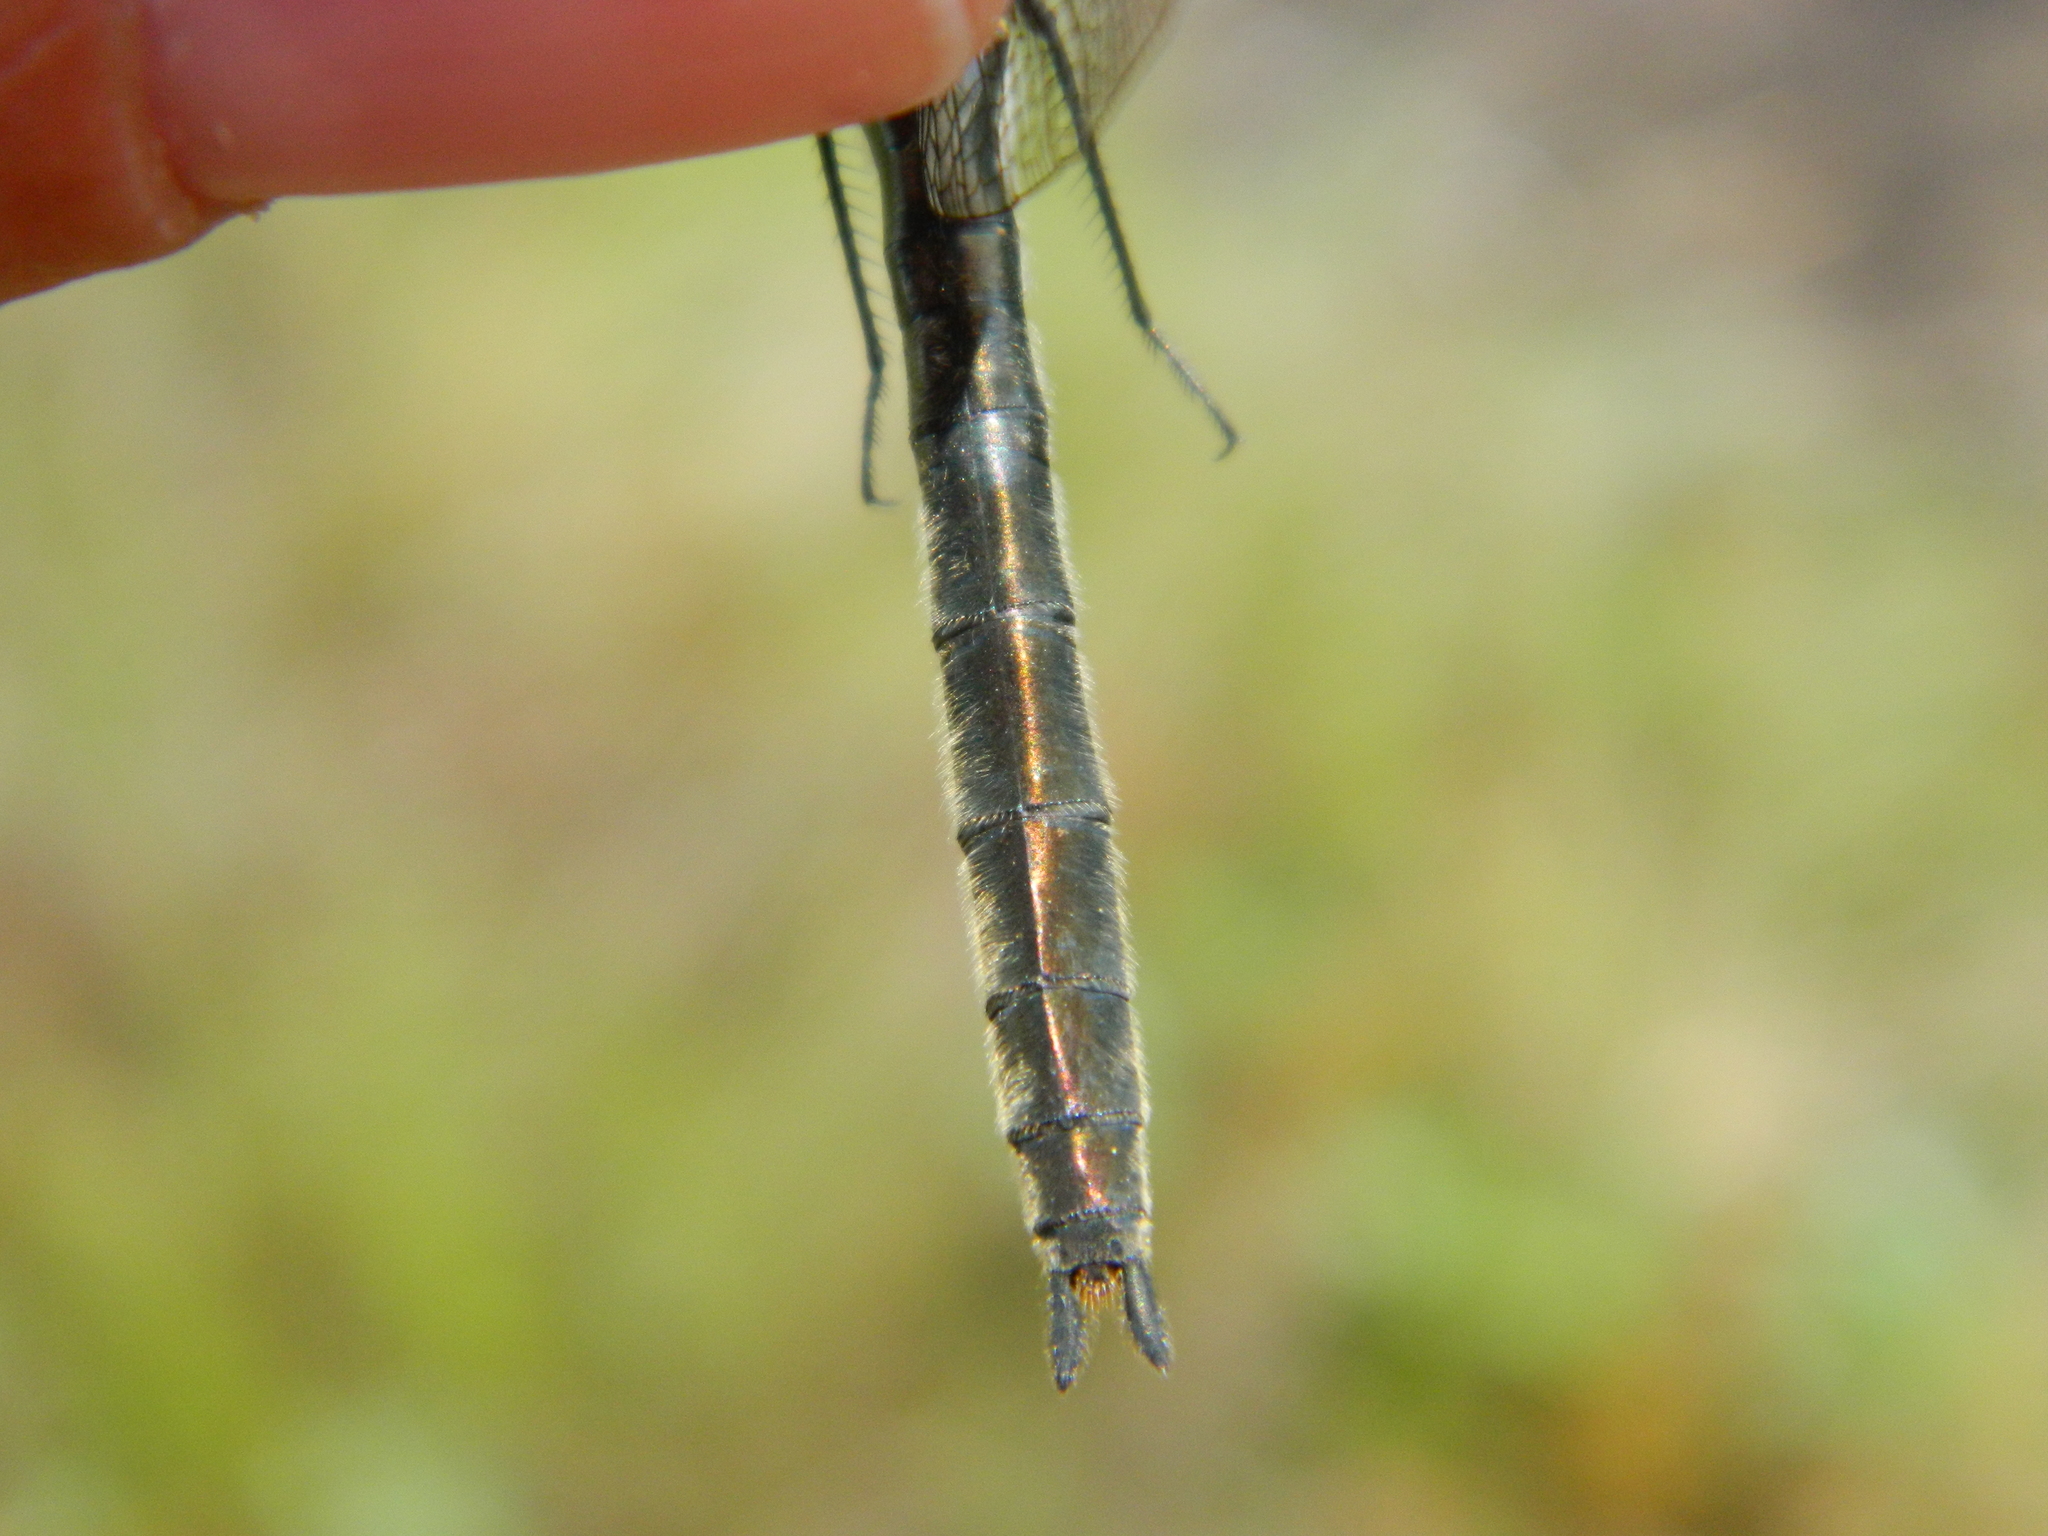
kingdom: Animalia
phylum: Arthropoda
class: Insecta
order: Odonata
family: Corduliidae
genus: Cordulia
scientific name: Cordulia shurtleffii
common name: American emerald
